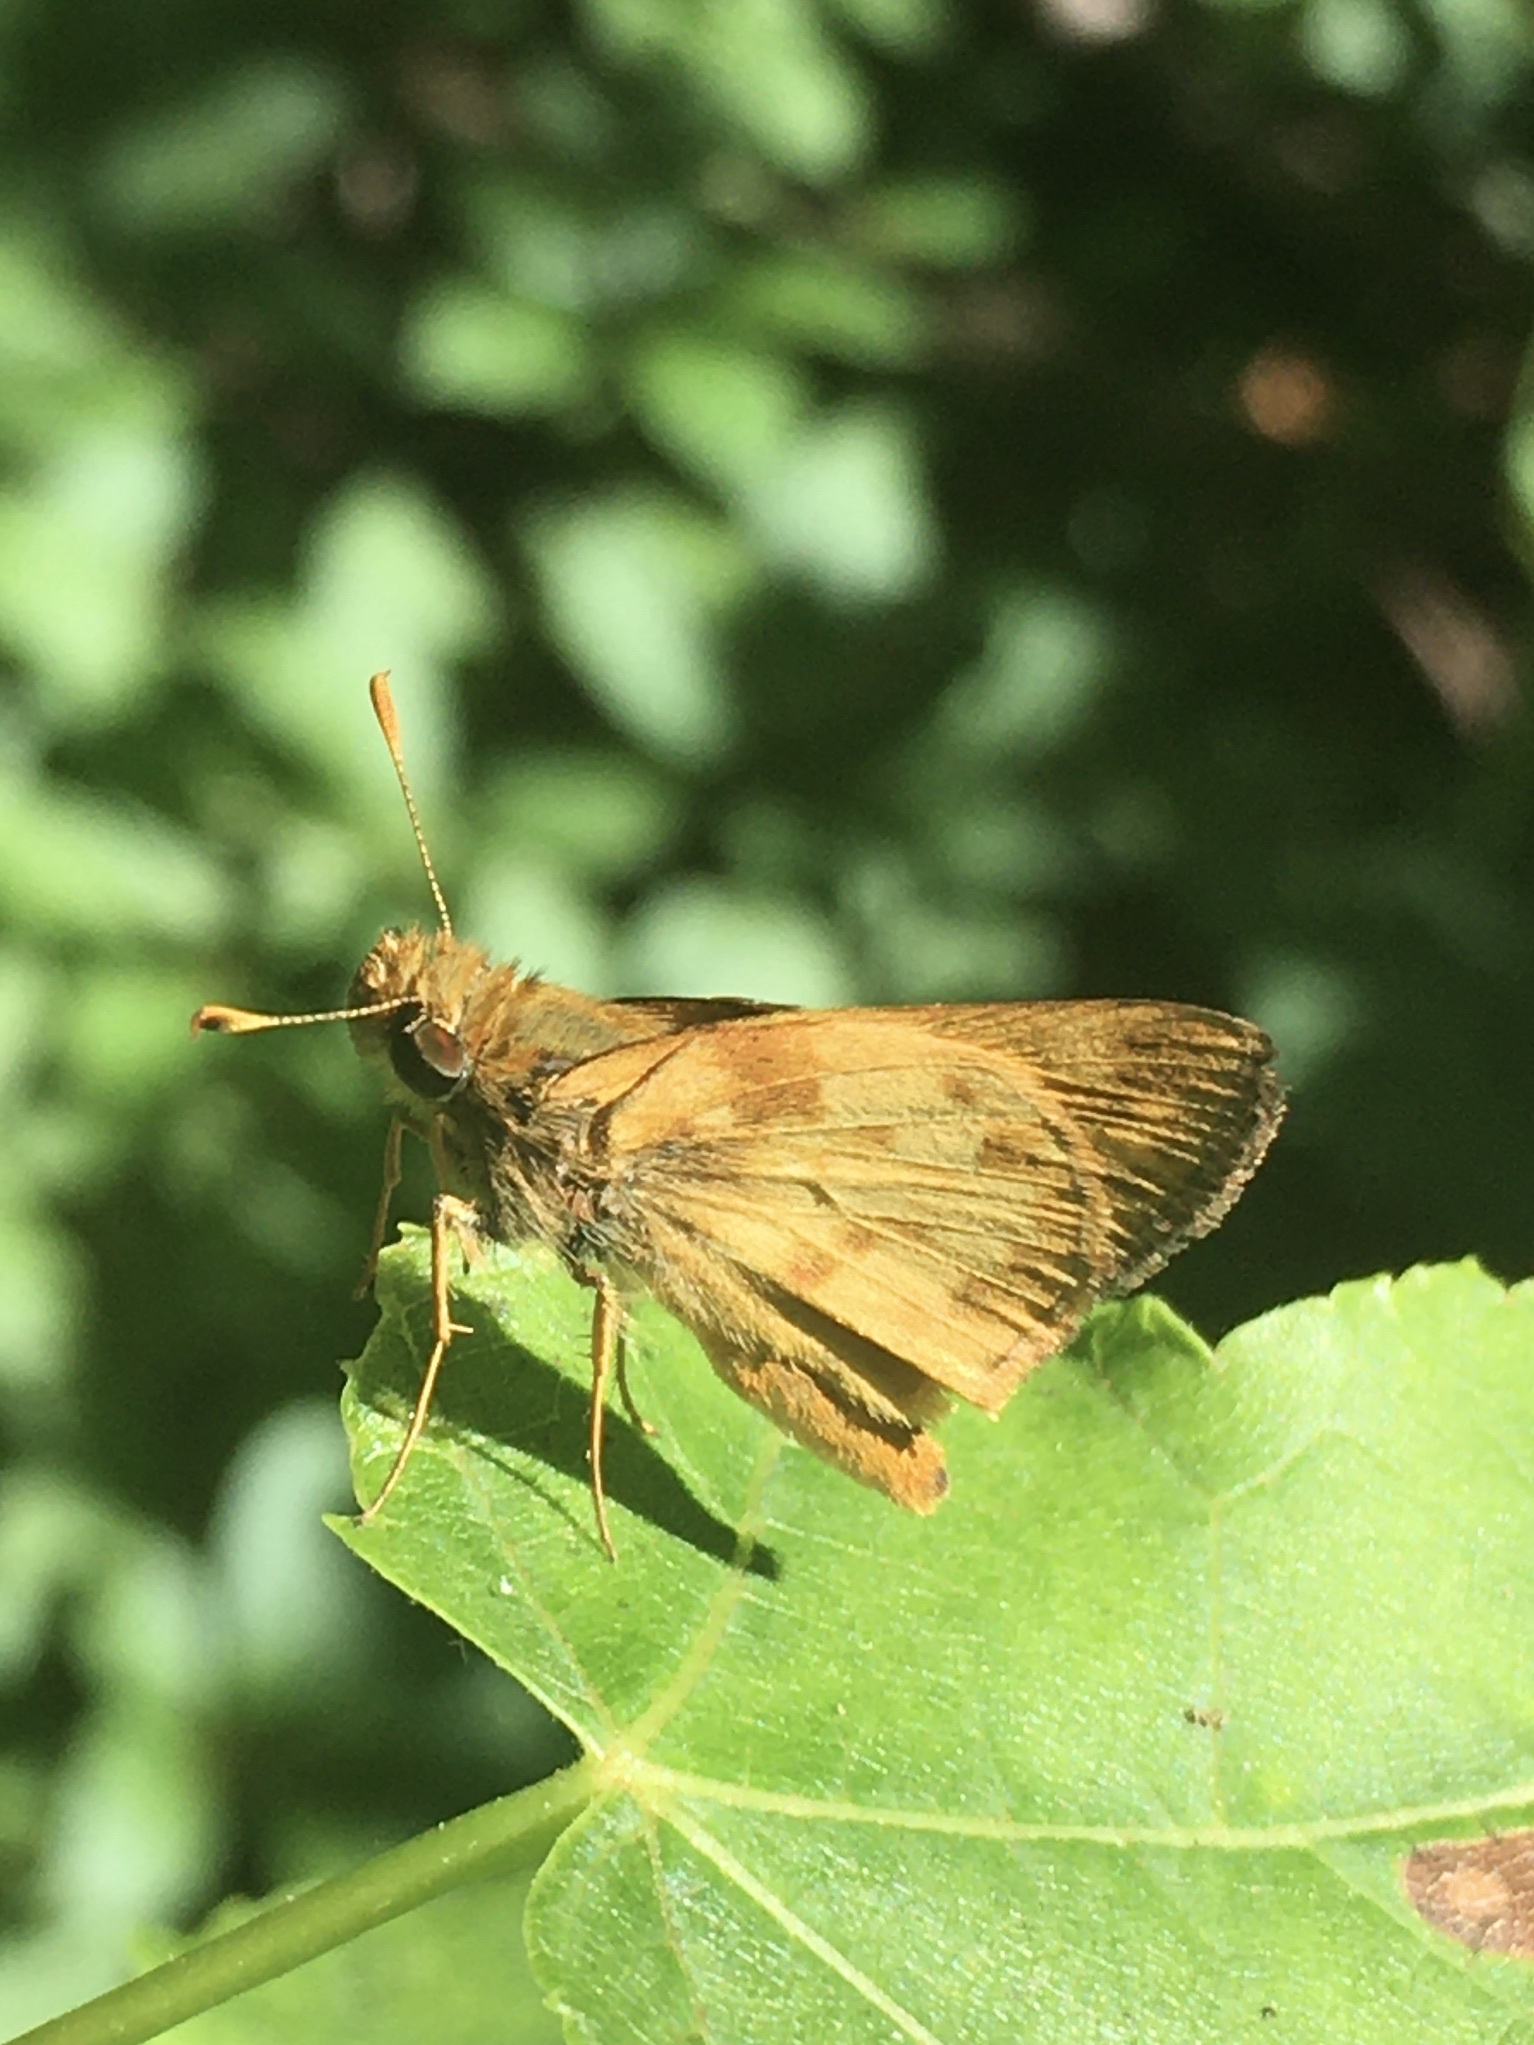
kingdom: Animalia
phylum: Arthropoda
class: Insecta
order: Lepidoptera
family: Hesperiidae
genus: Lon
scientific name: Lon zabulon
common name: Zabulon skipper
